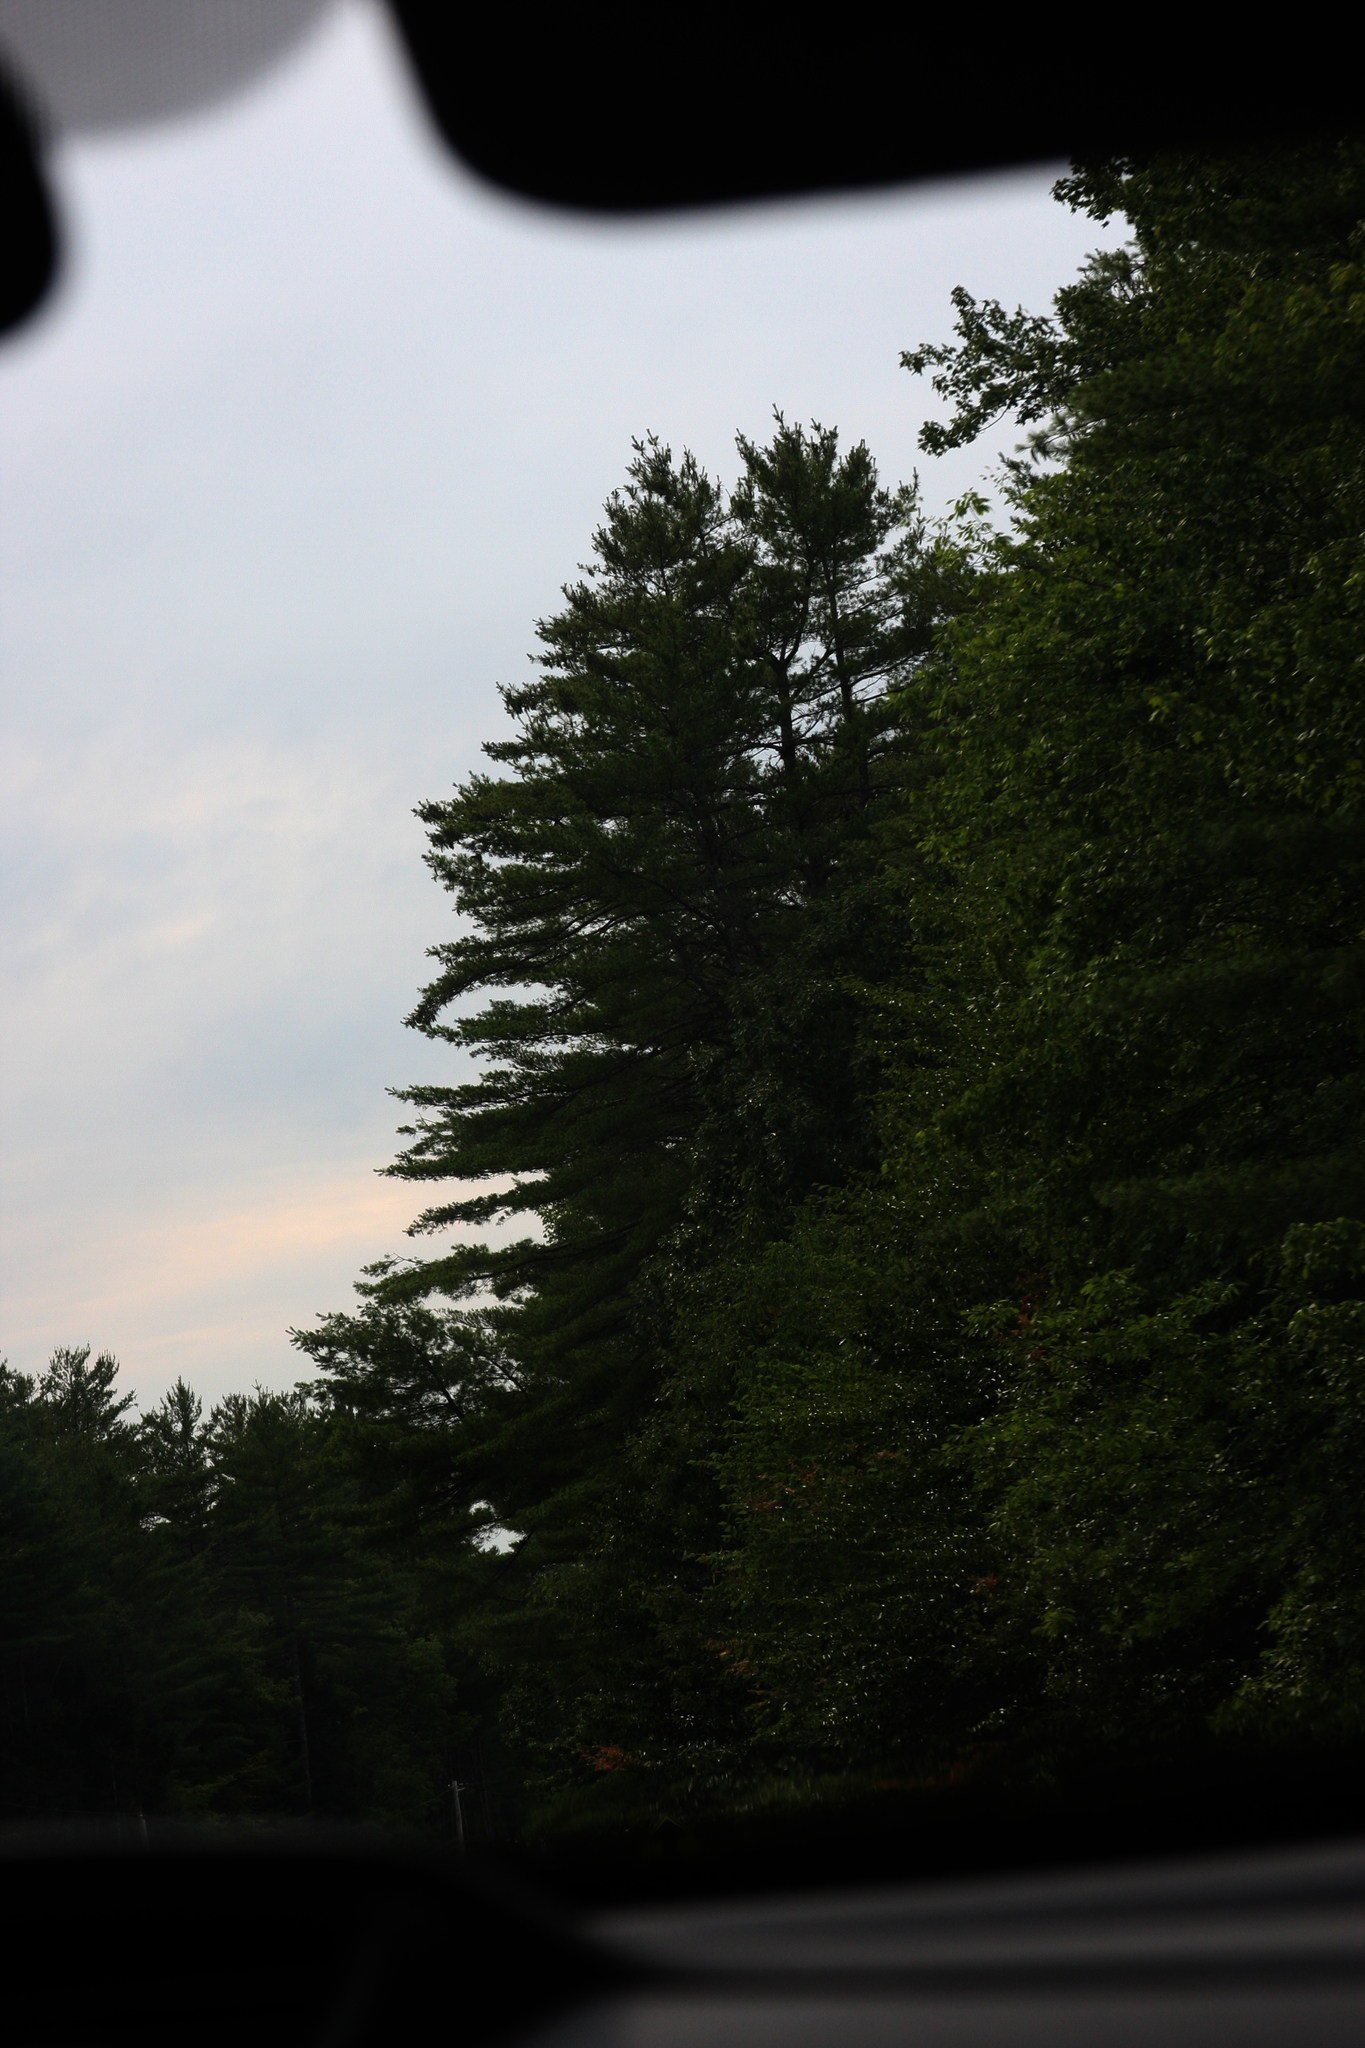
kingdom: Plantae
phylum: Tracheophyta
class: Pinopsida
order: Pinales
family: Pinaceae
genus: Pinus
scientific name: Pinus strobus
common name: Weymouth pine
